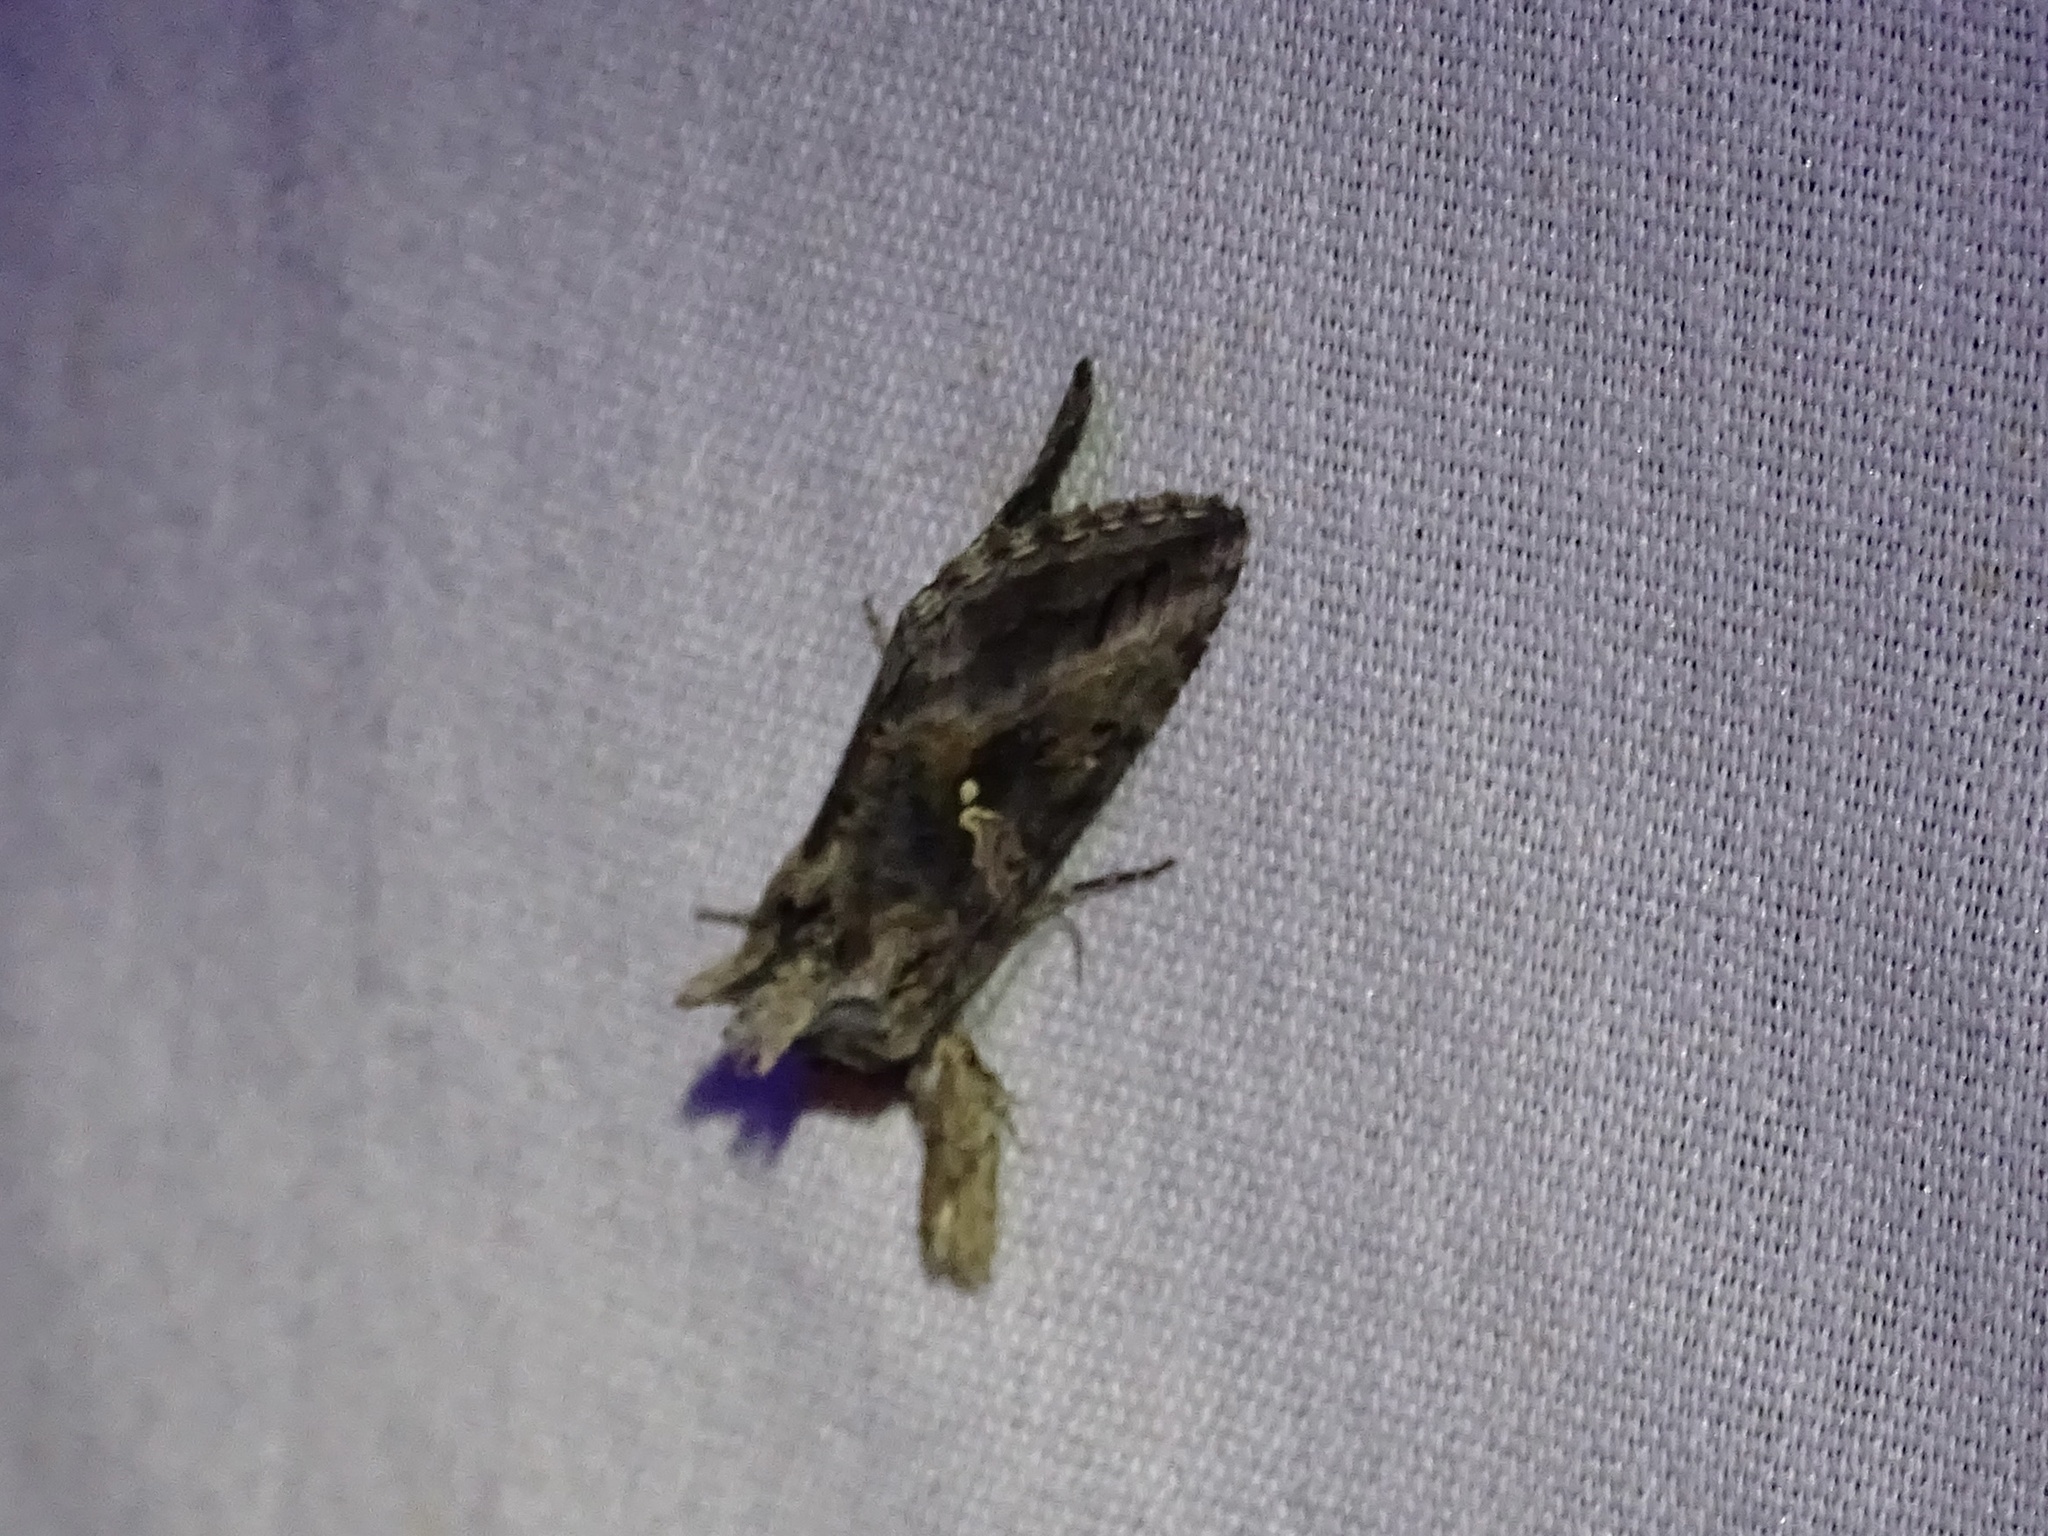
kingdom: Animalia
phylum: Arthropoda
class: Insecta
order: Lepidoptera
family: Noctuidae
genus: Rachiplusia
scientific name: Rachiplusia ou
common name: Gray looper moth
